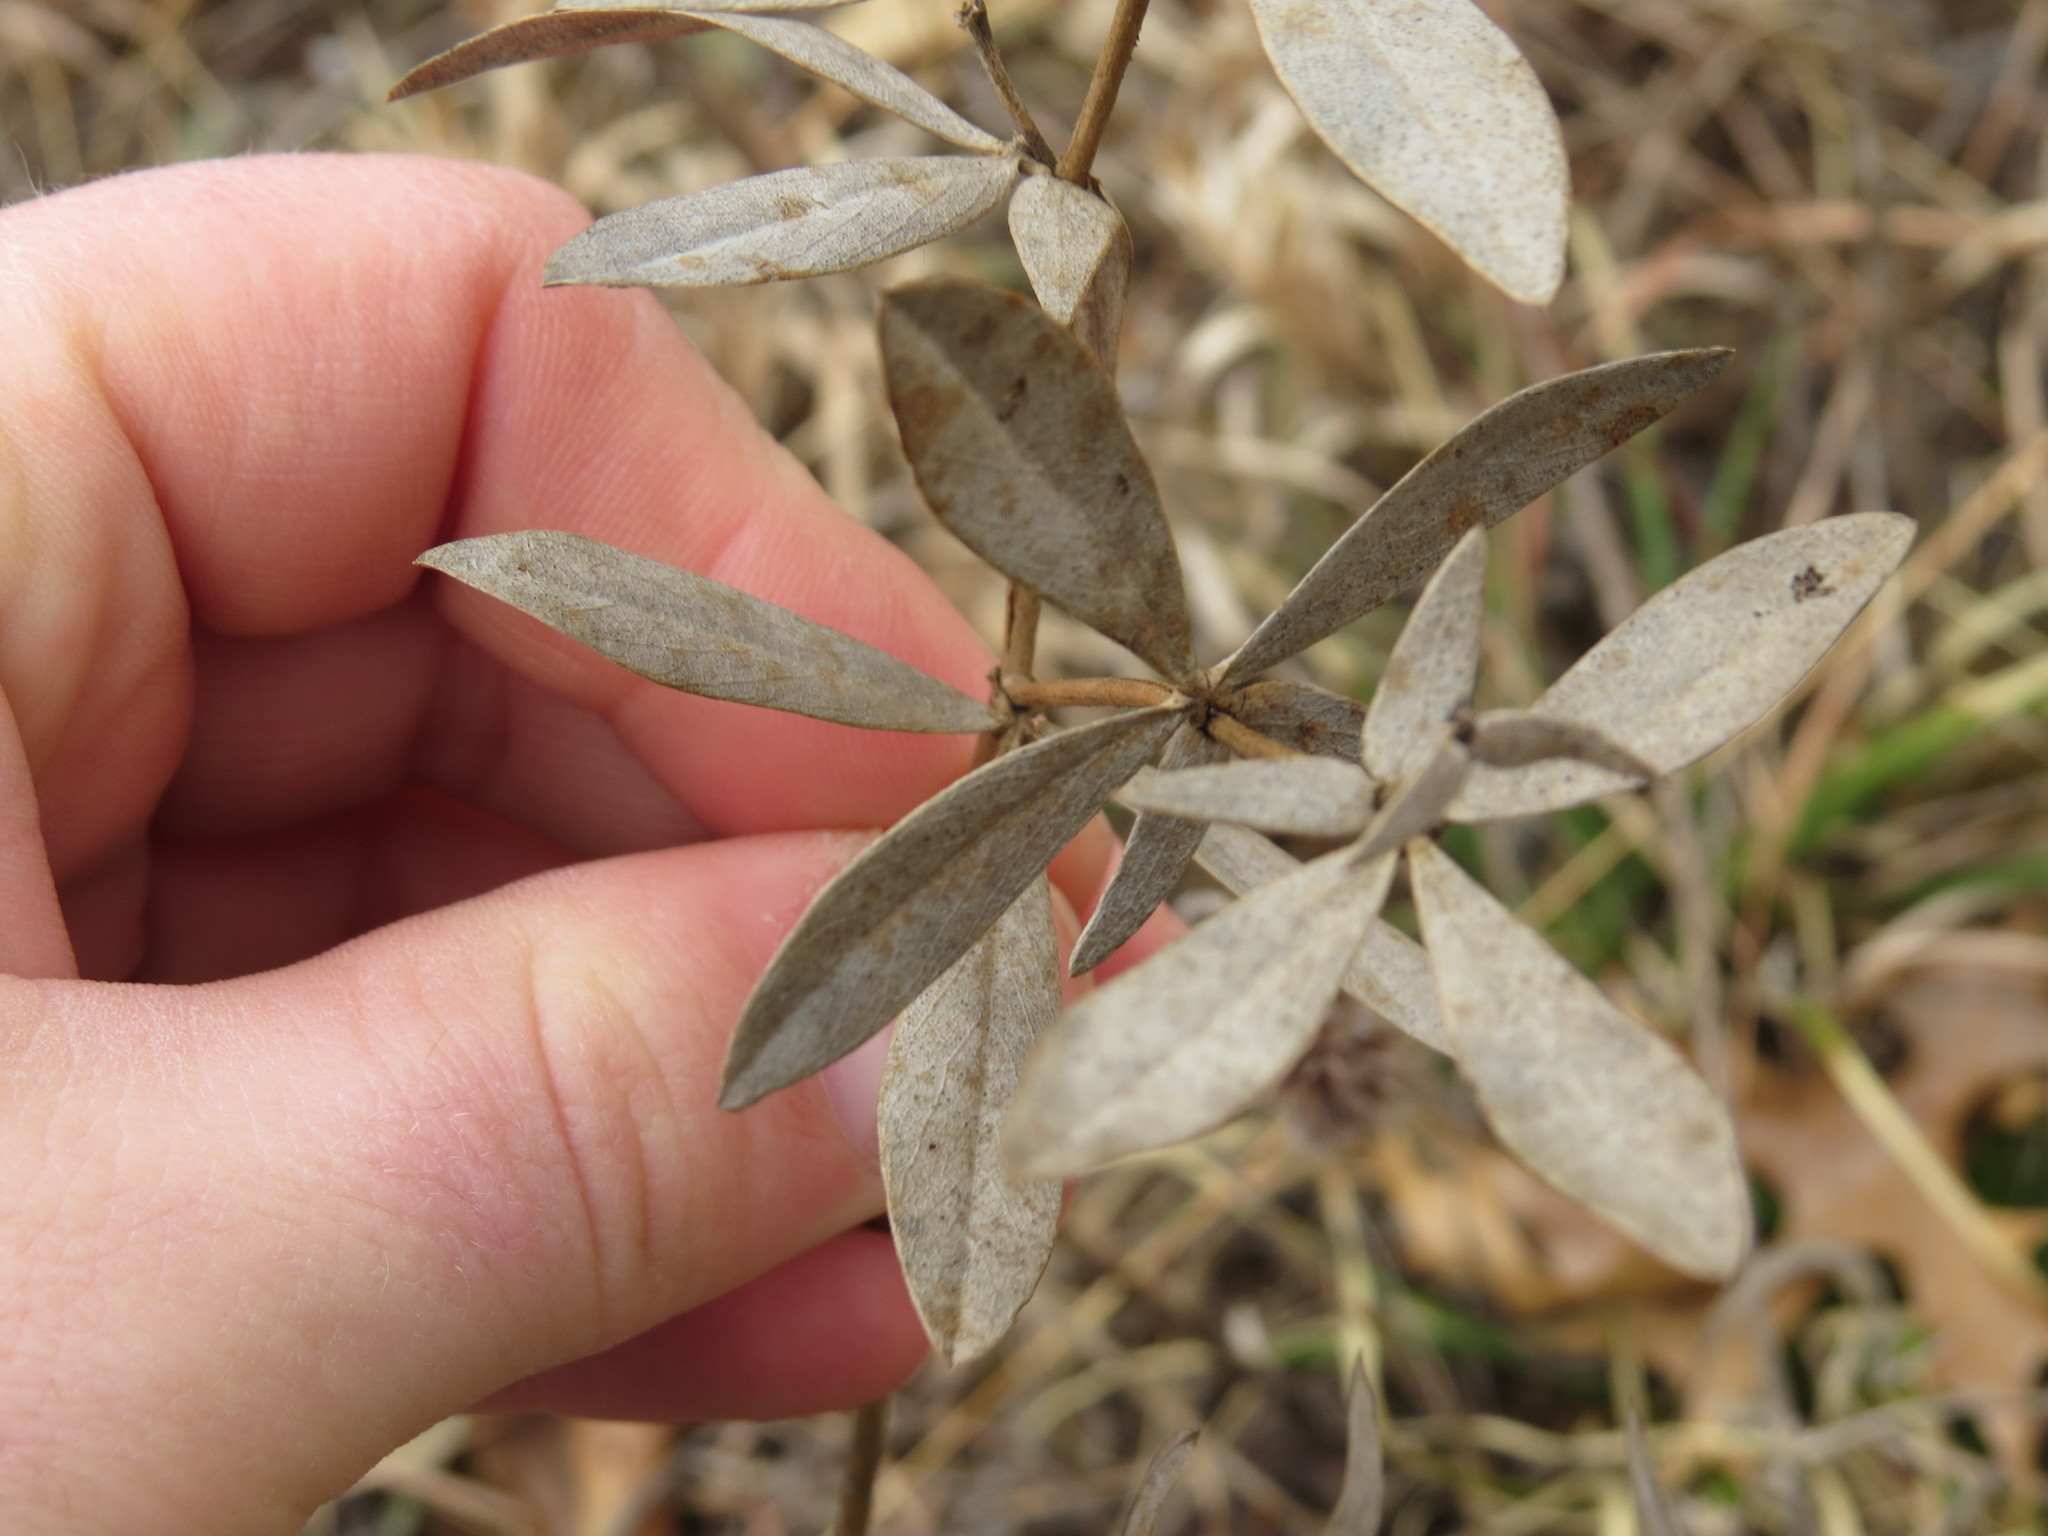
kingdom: Plantae
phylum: Tracheophyta
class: Magnoliopsida
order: Fabales
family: Fabaceae
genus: Baptisia
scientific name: Baptisia bracteata
